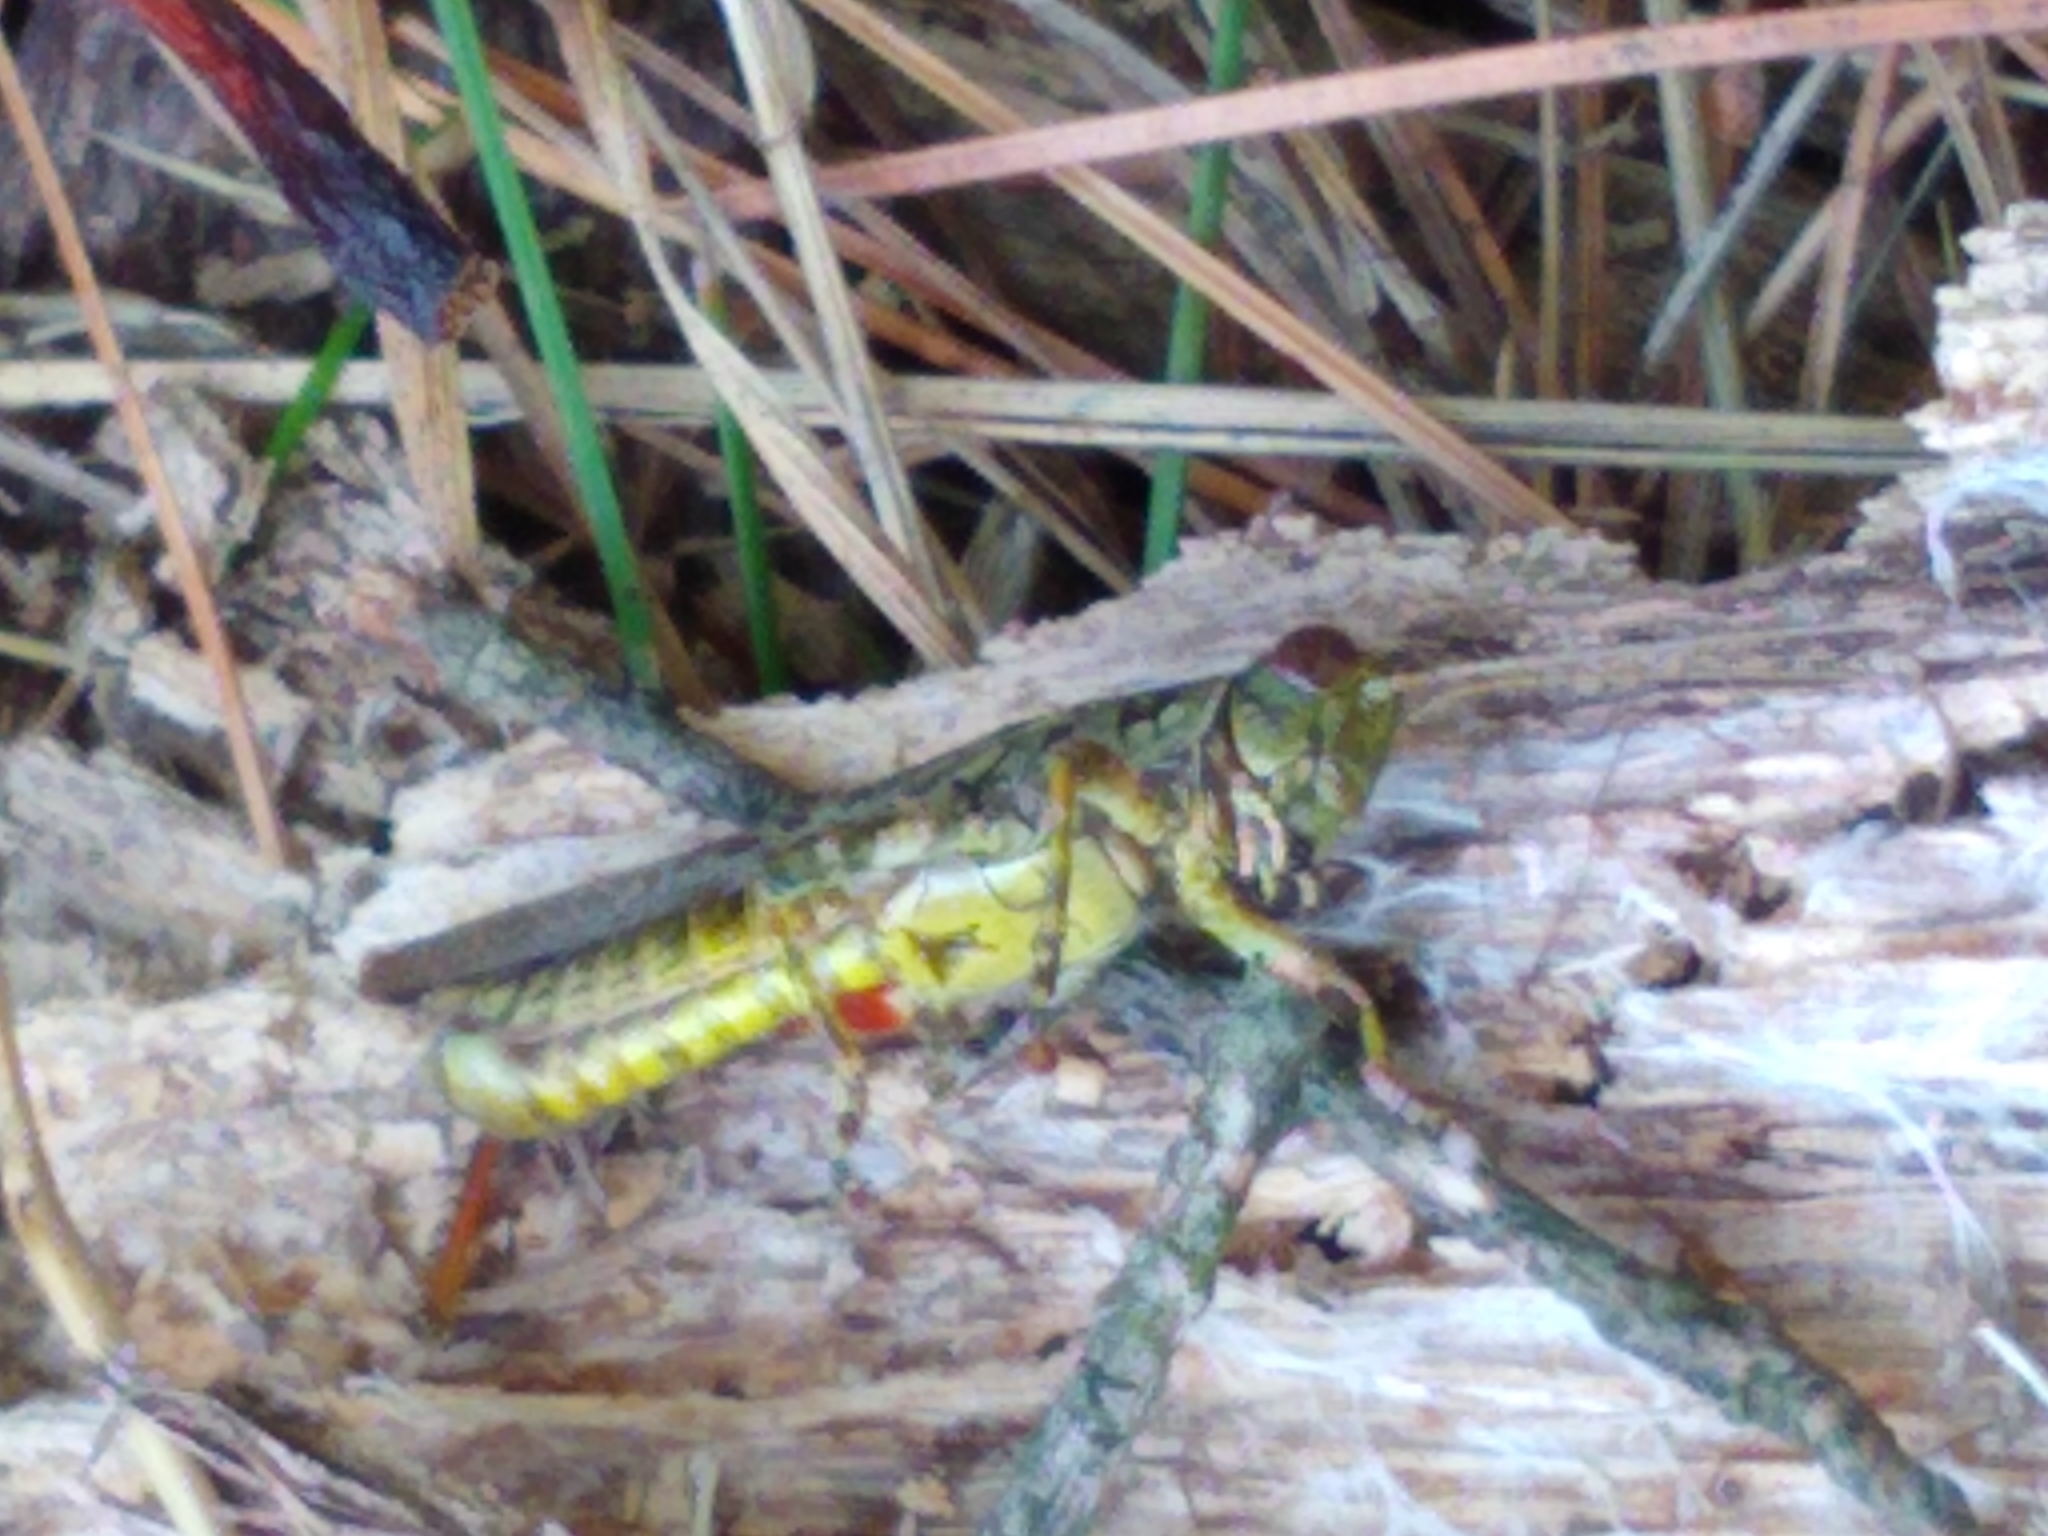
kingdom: Animalia
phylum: Arthropoda
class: Insecta
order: Orthoptera
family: Acrididae
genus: Melanoplus
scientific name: Melanoplus punctulatus
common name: Pine-tree spur-throat grasshopper
